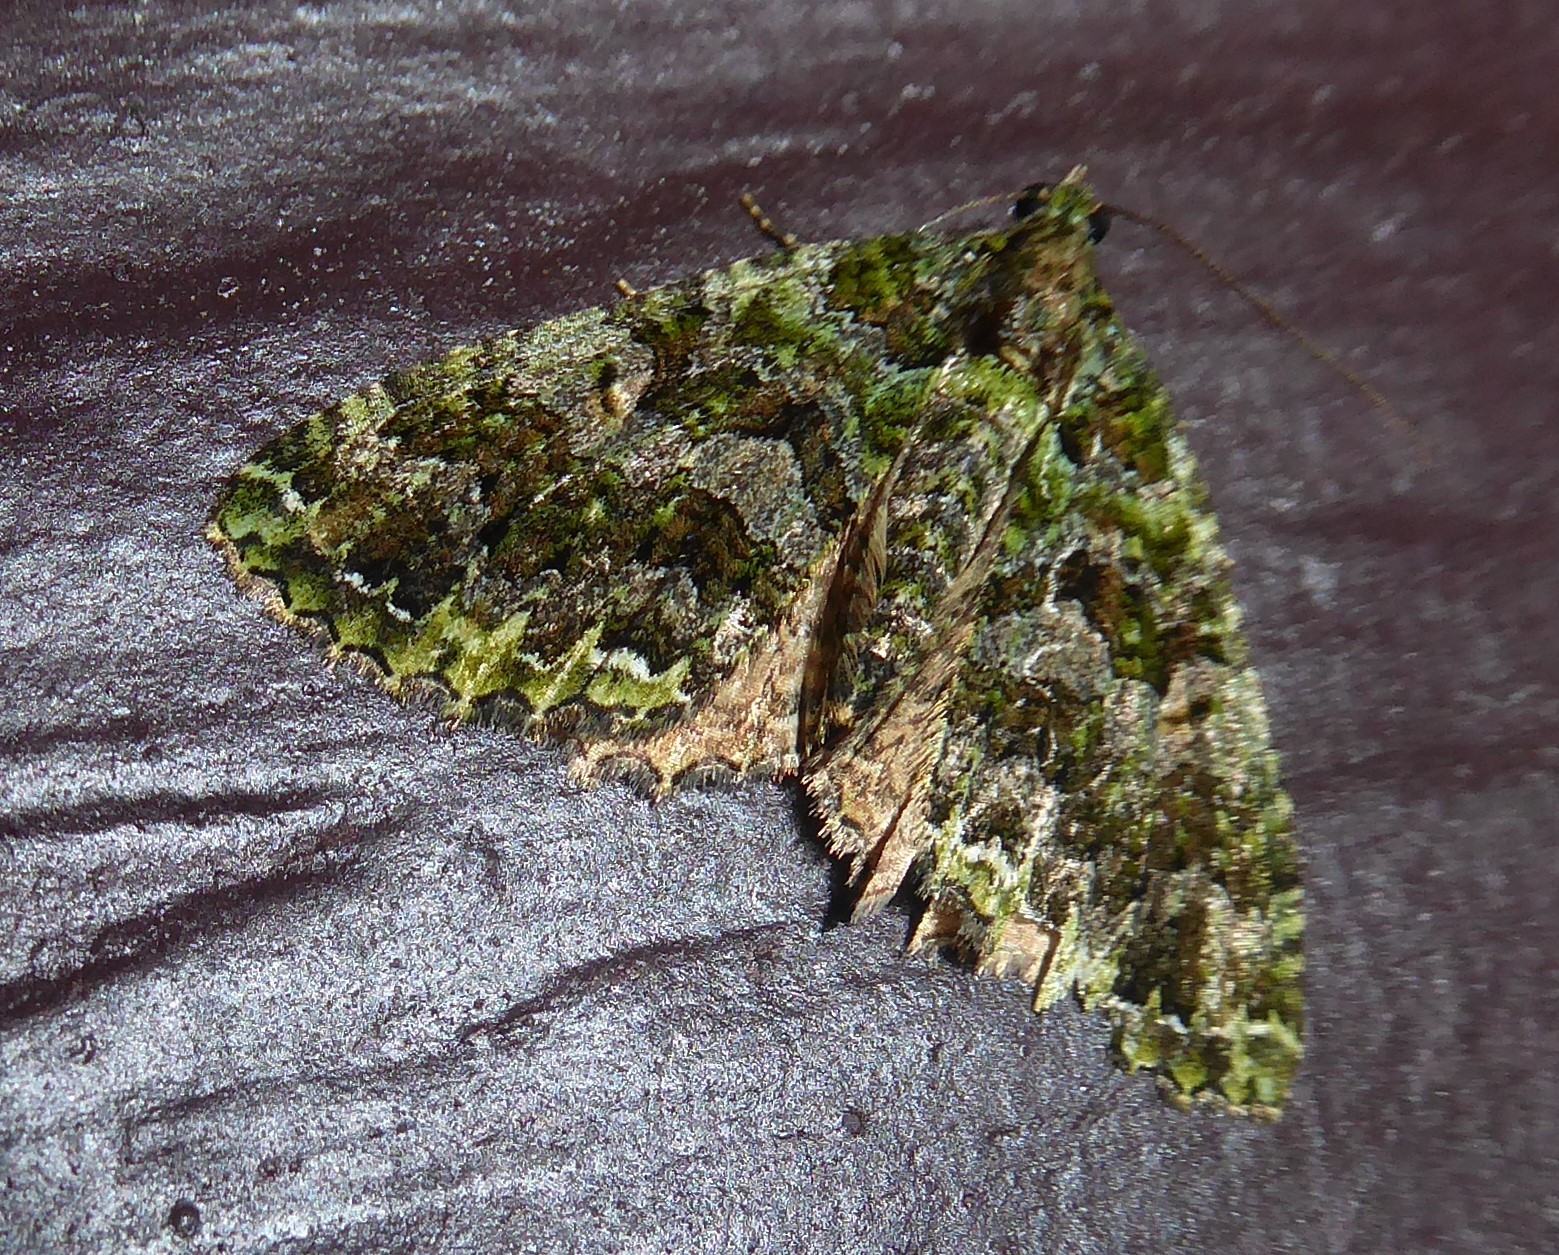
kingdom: Animalia
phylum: Arthropoda
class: Insecta
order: Lepidoptera
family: Geometridae
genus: Austrocidaria
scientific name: Austrocidaria similata
